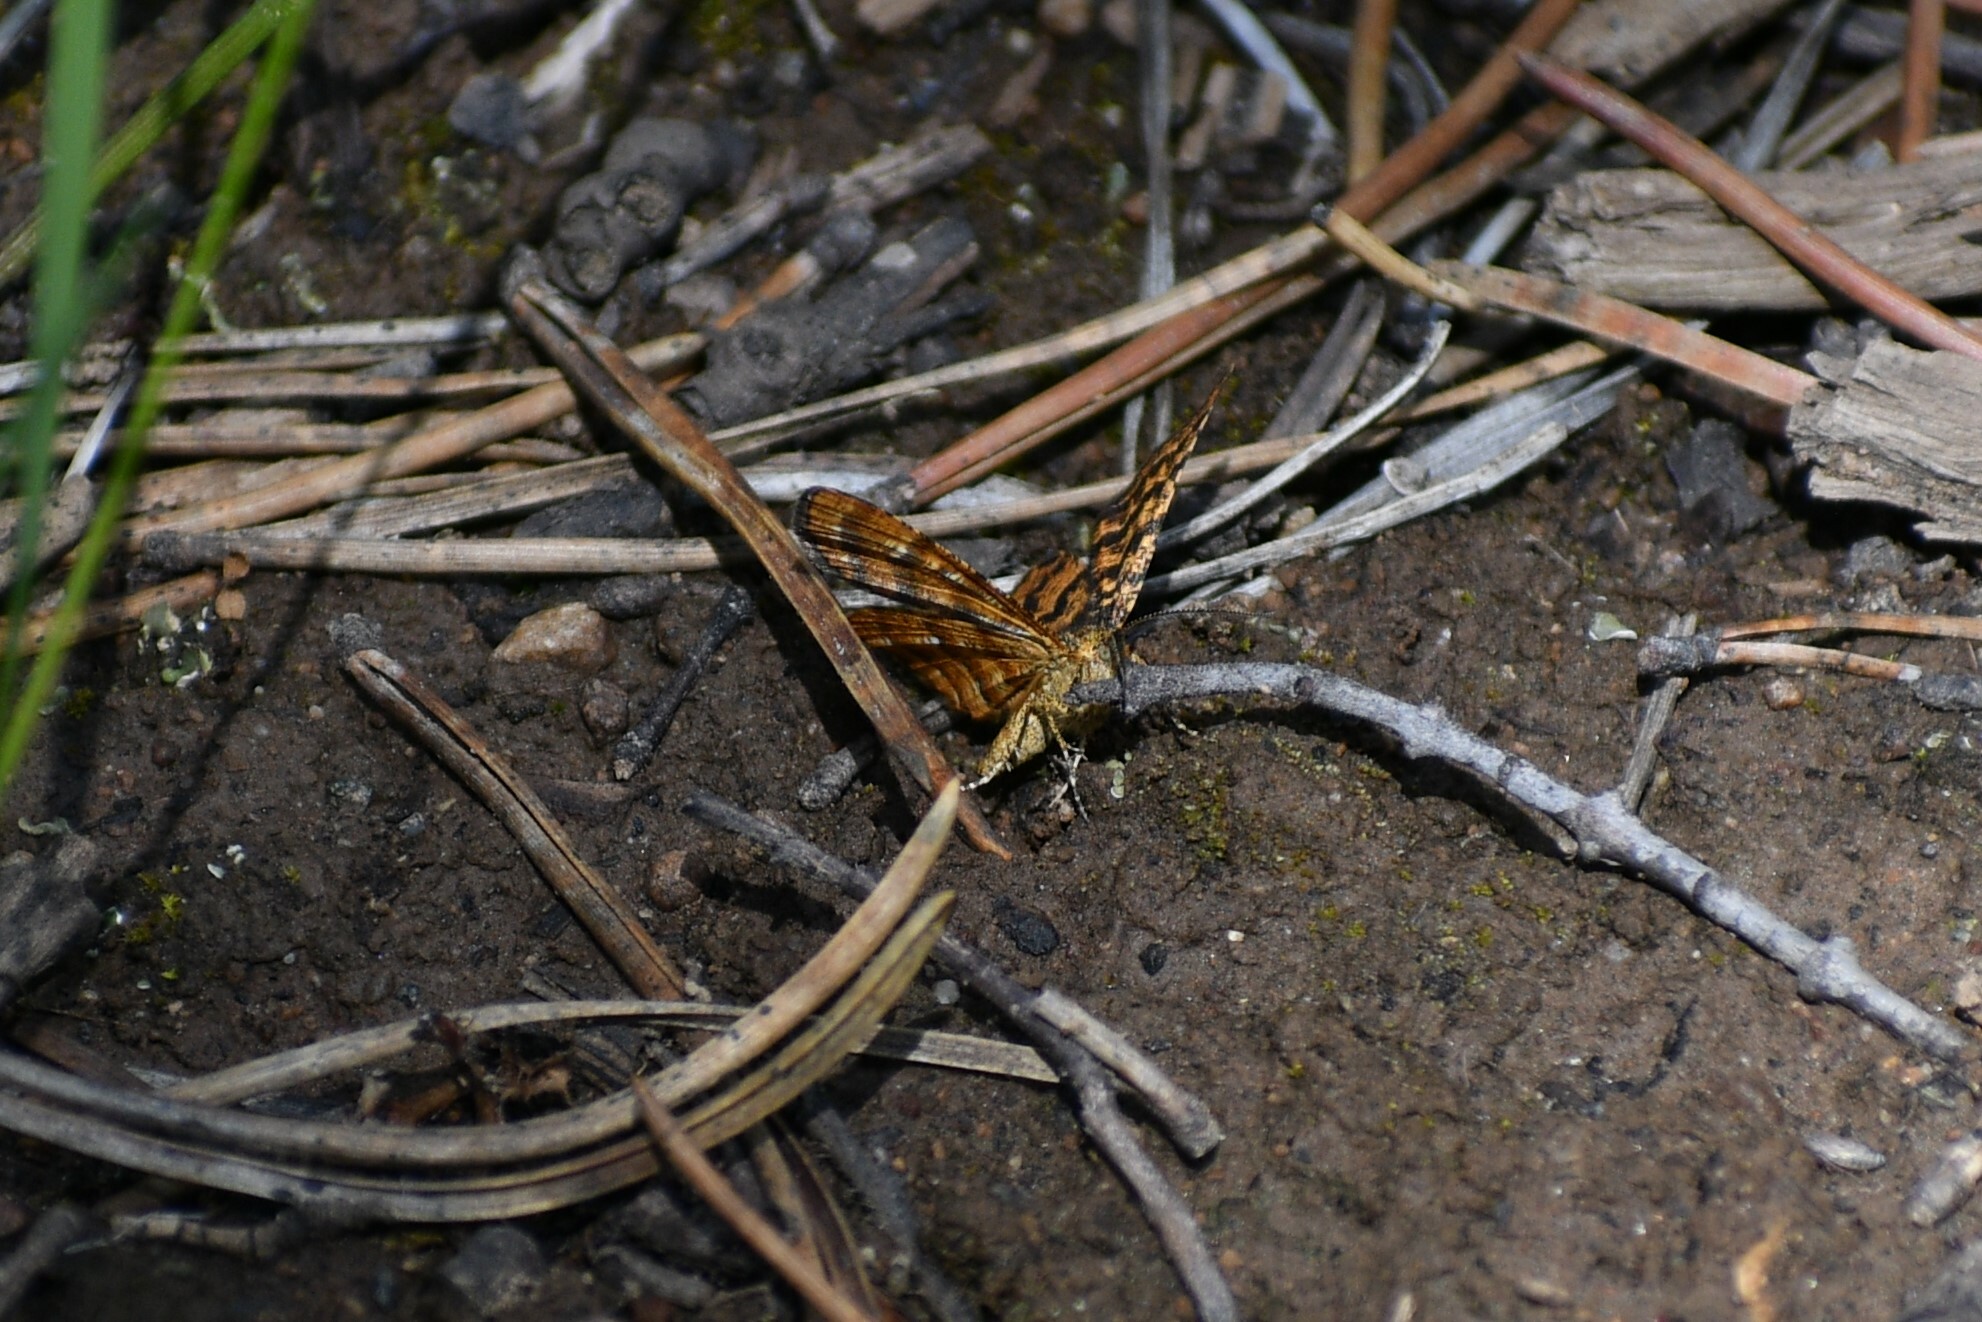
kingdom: Animalia
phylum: Arthropoda
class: Insecta
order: Lepidoptera
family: Geometridae
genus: Macaria
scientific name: Macaria truncataria
